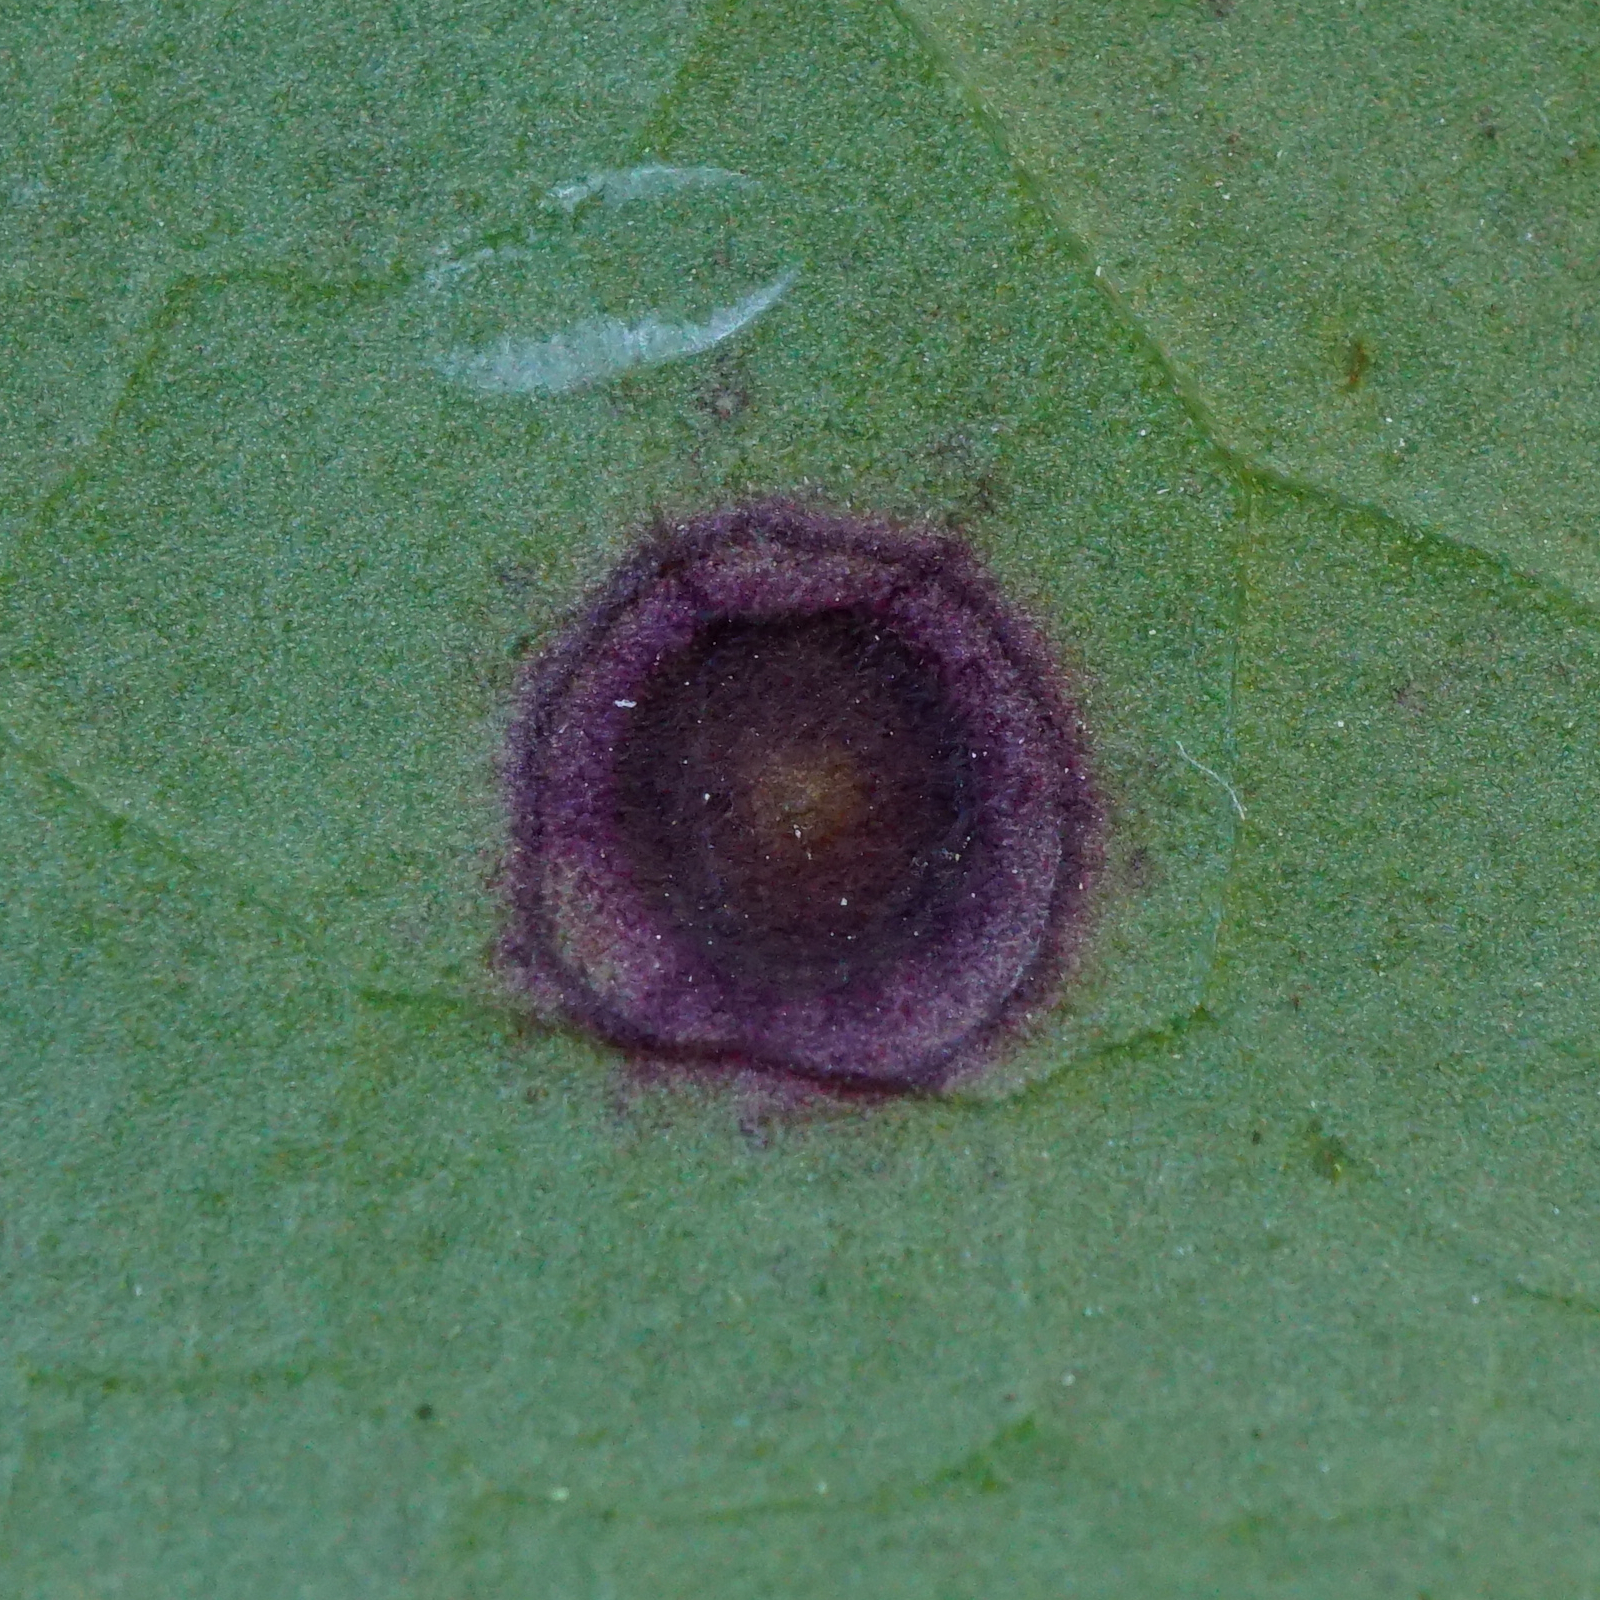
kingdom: Fungi
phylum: Ascomycota
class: Dothideomycetes
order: Mycosphaerellales
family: Mycosphaerellaceae
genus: Stigmina
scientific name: Stigmina carpophila
